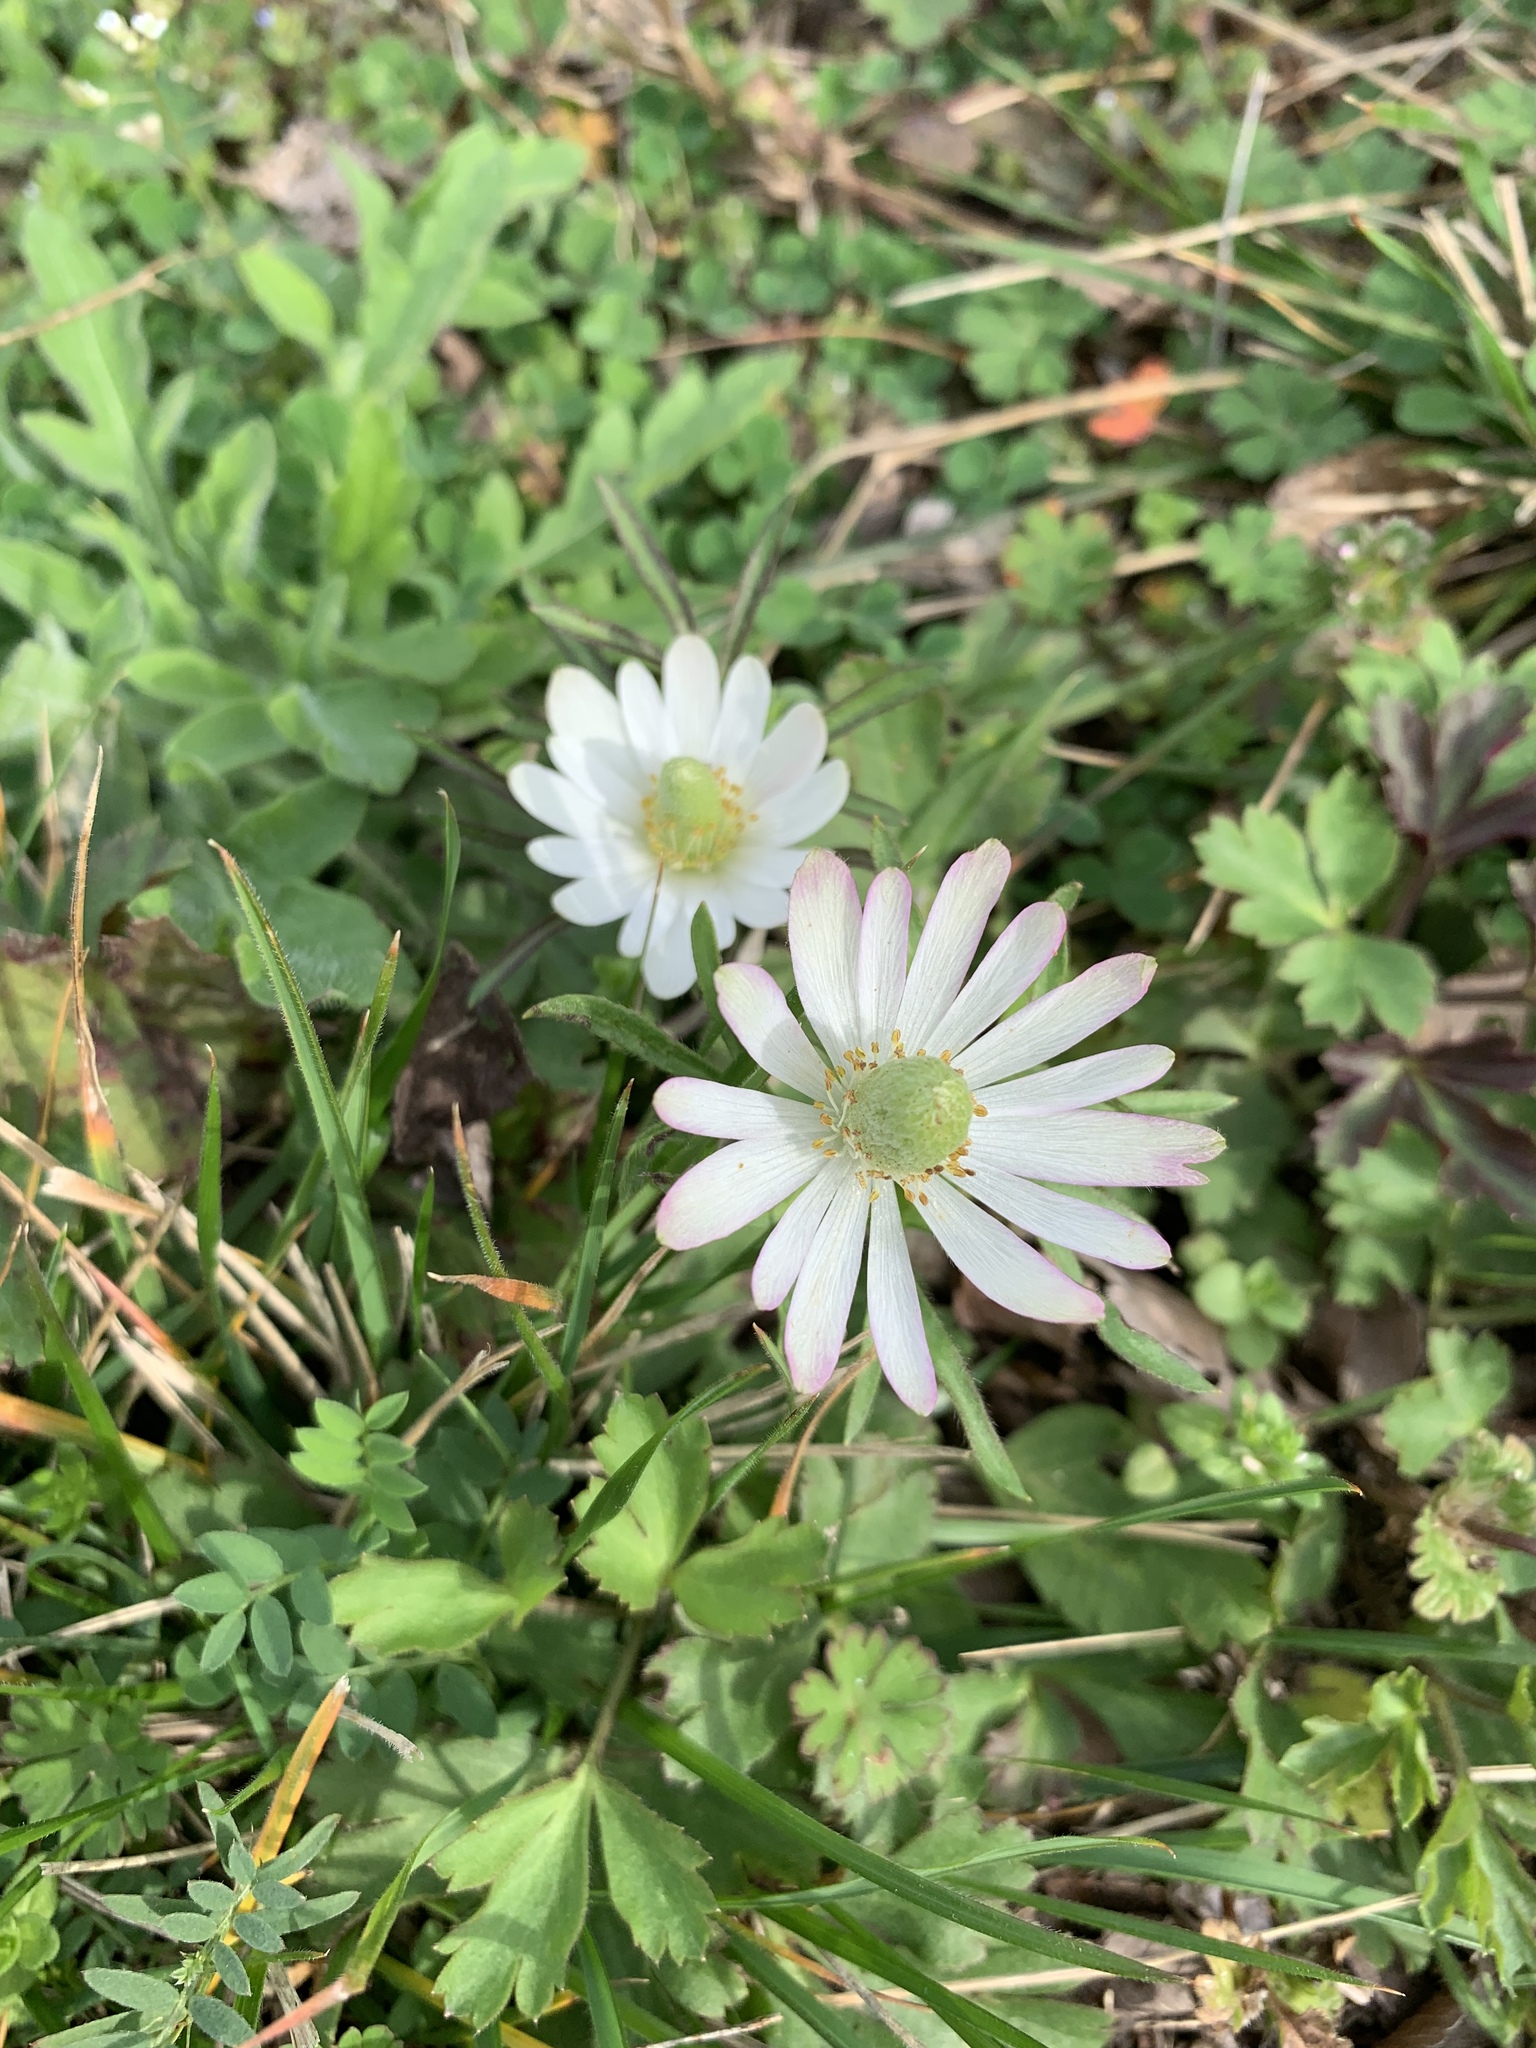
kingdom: Plantae
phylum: Tracheophyta
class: Magnoliopsida
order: Ranunculales
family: Ranunculaceae
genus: Anemone
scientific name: Anemone berlandieri
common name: Ten-petal anemone
